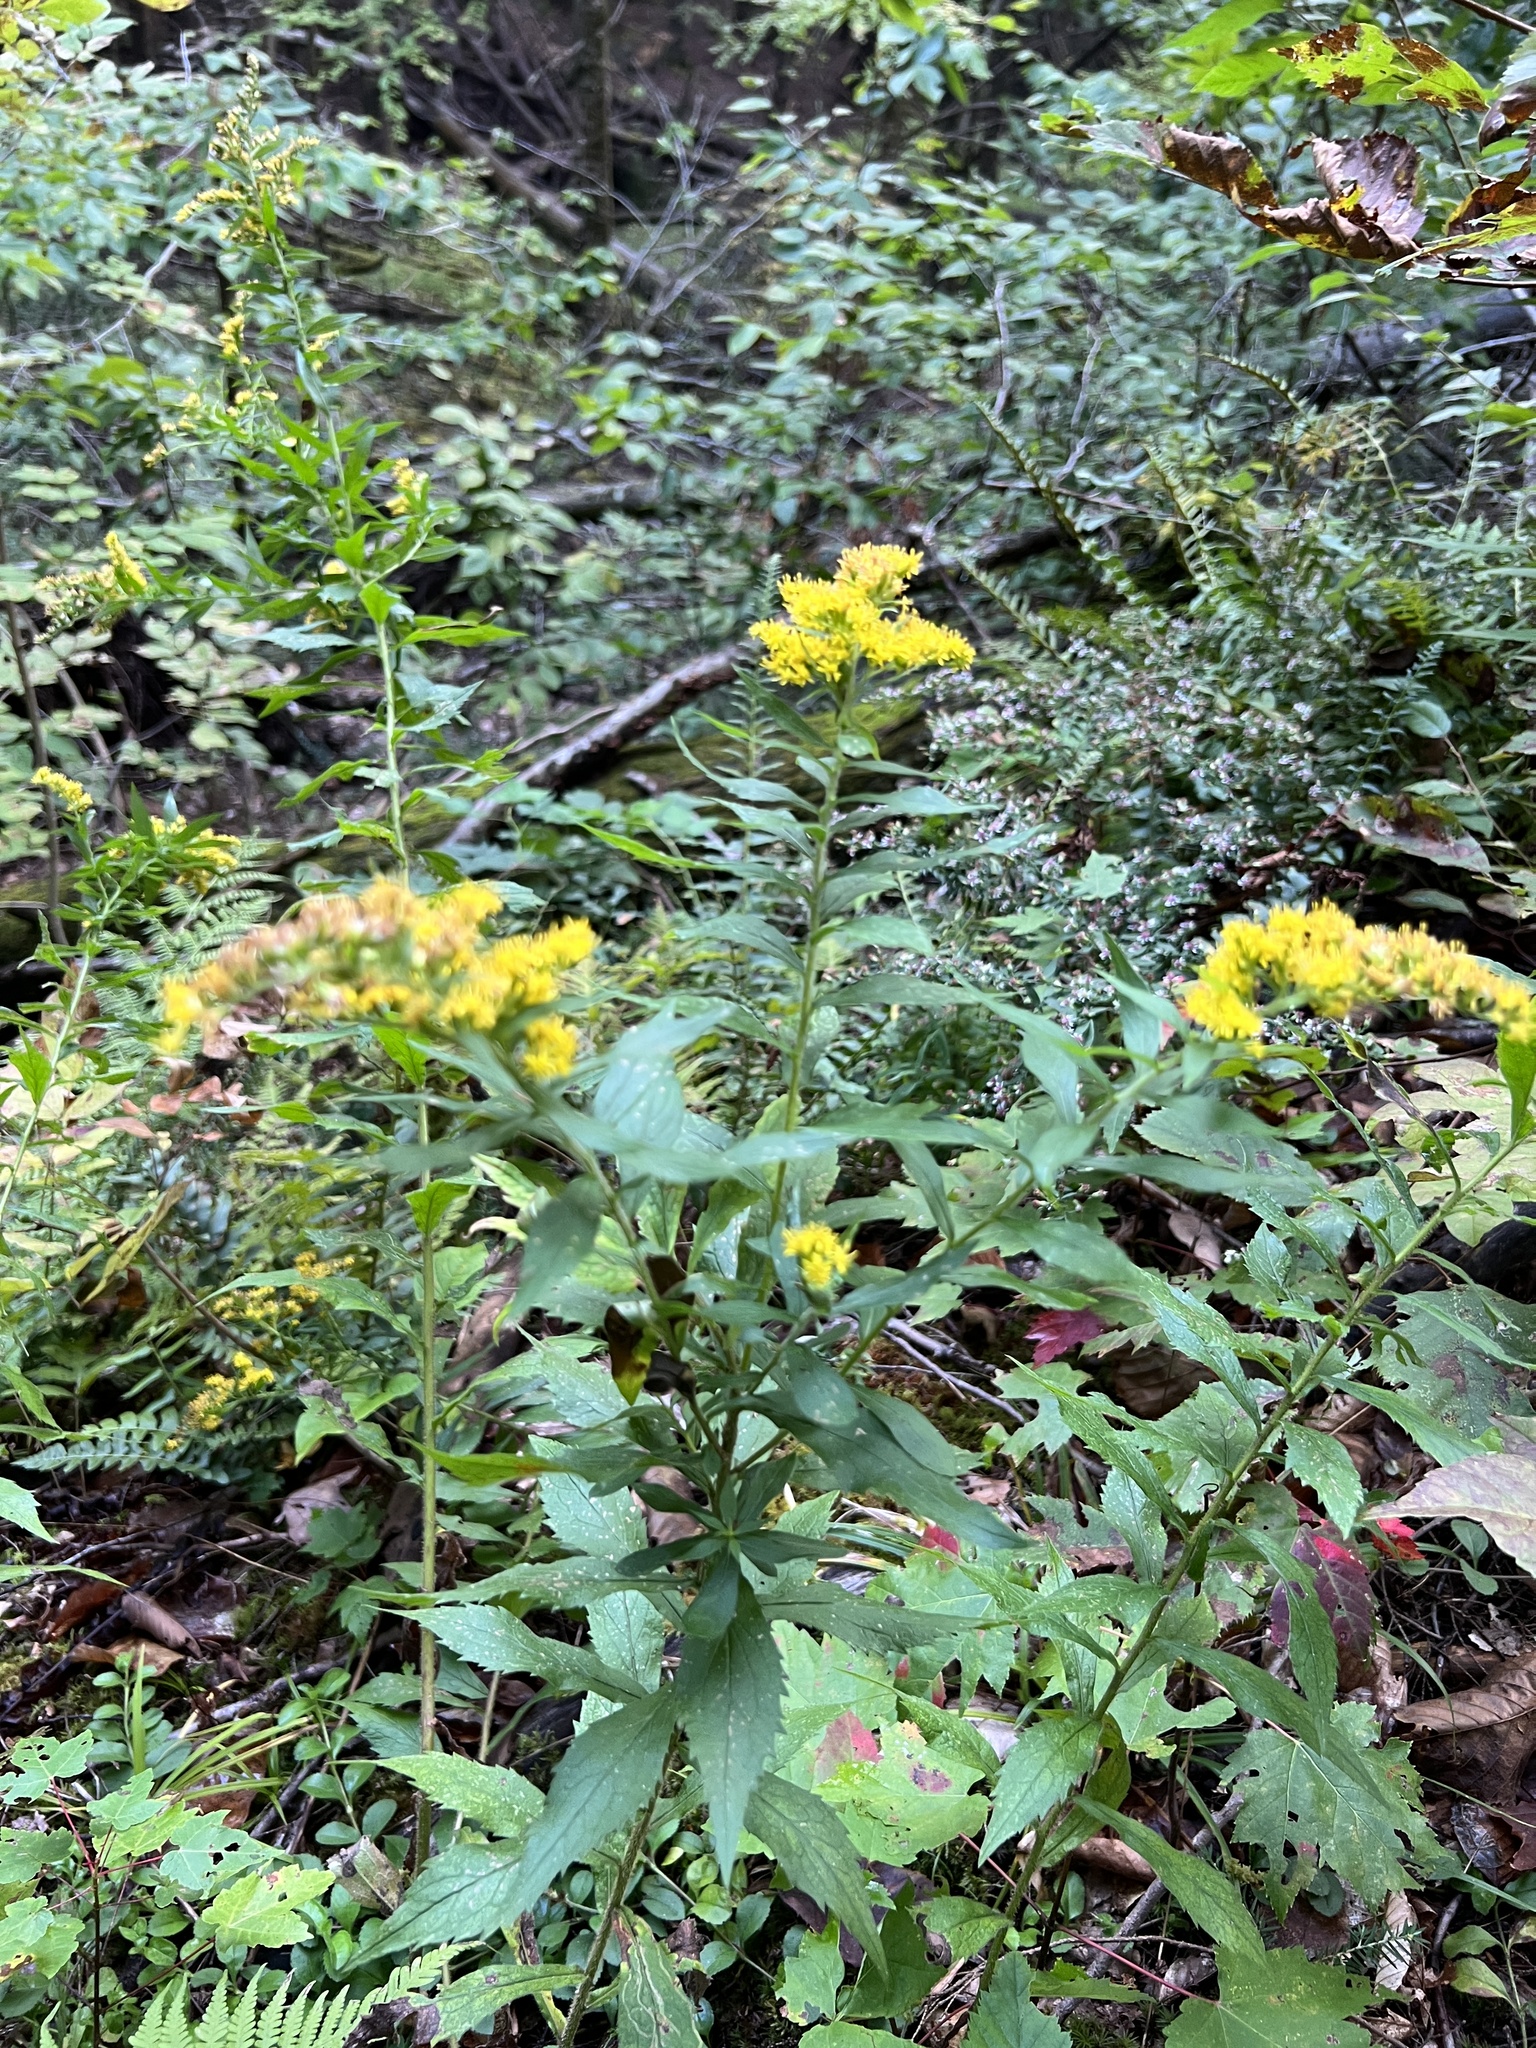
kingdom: Plantae
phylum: Tracheophyta
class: Magnoliopsida
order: Asterales
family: Asteraceae
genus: Solidago
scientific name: Solidago rugosa
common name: Rough-stemmed goldenrod
